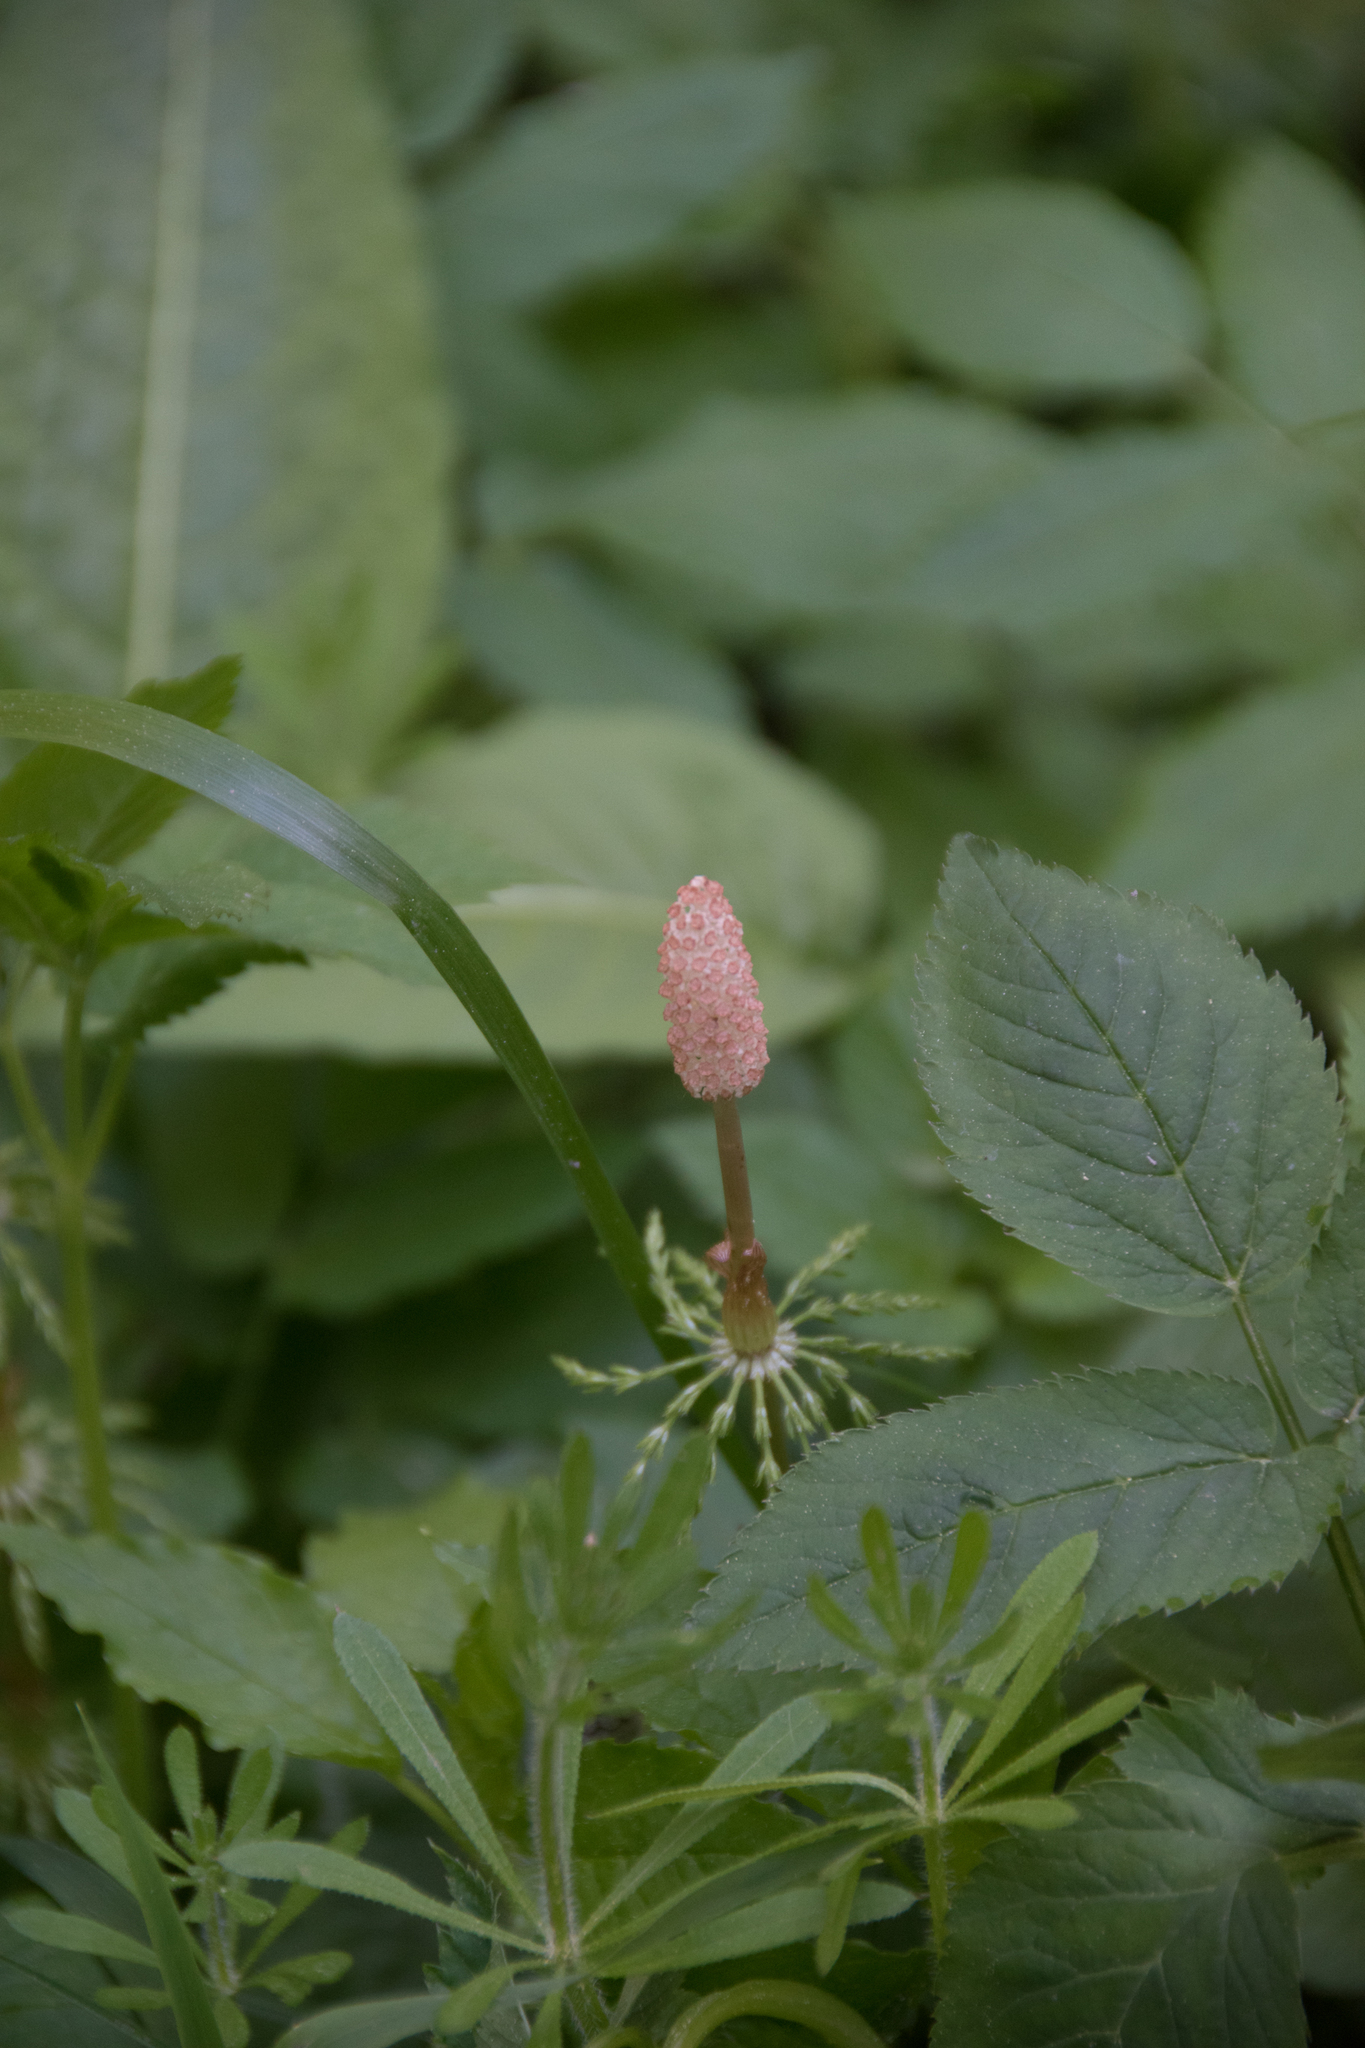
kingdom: Plantae
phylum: Tracheophyta
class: Polypodiopsida
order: Equisetales
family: Equisetaceae
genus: Equisetum
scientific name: Equisetum sylvaticum
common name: Wood horsetail
